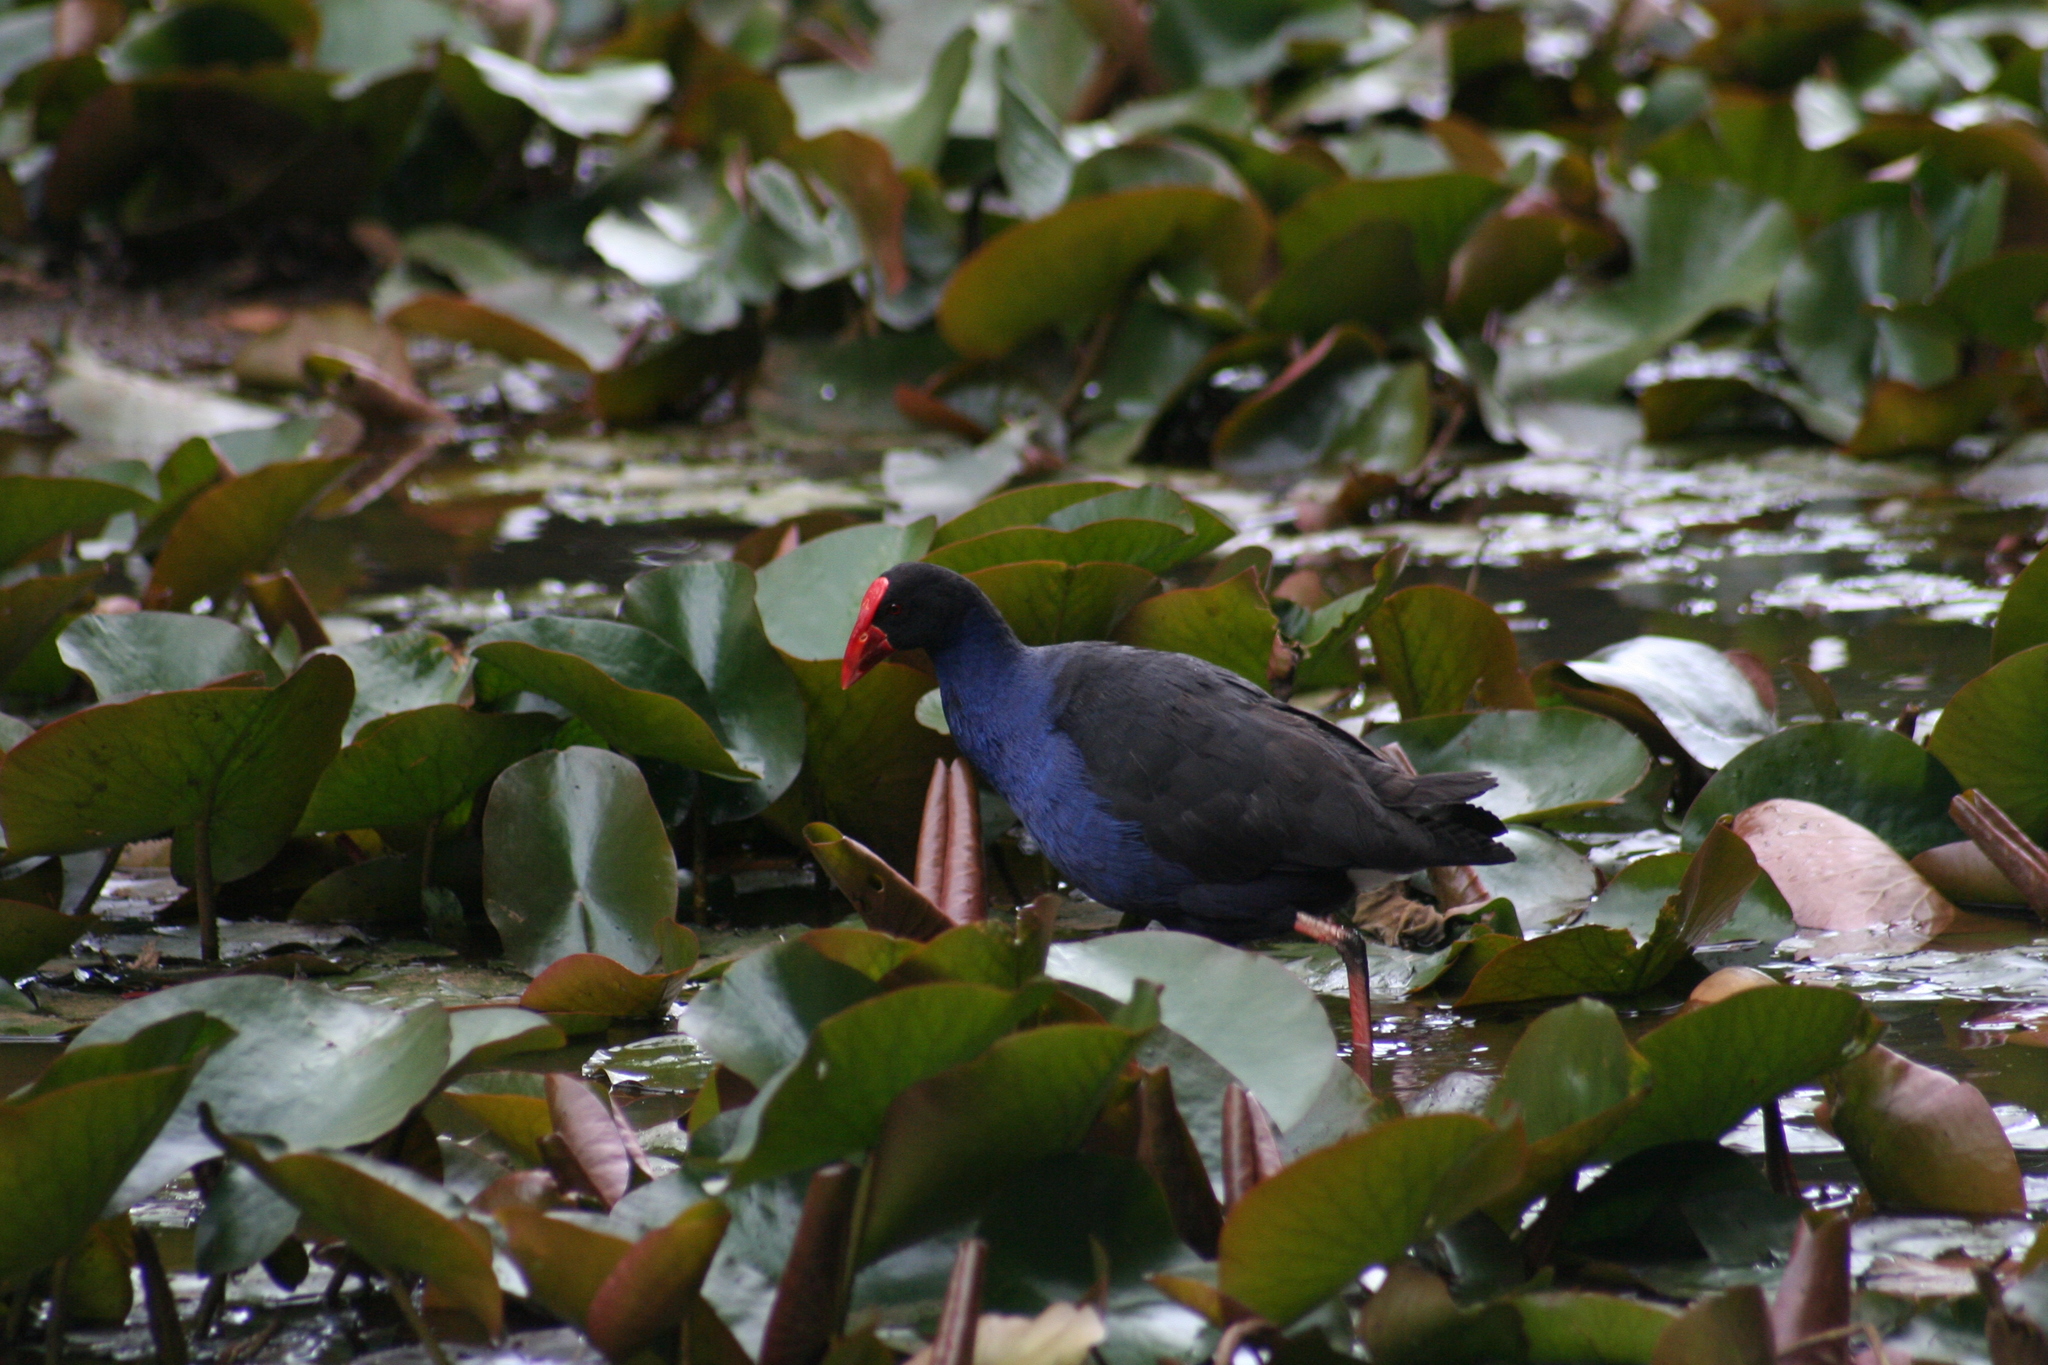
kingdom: Animalia
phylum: Chordata
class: Aves
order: Gruiformes
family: Rallidae
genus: Porphyrio
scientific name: Porphyrio melanotus
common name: Australasian swamphen
